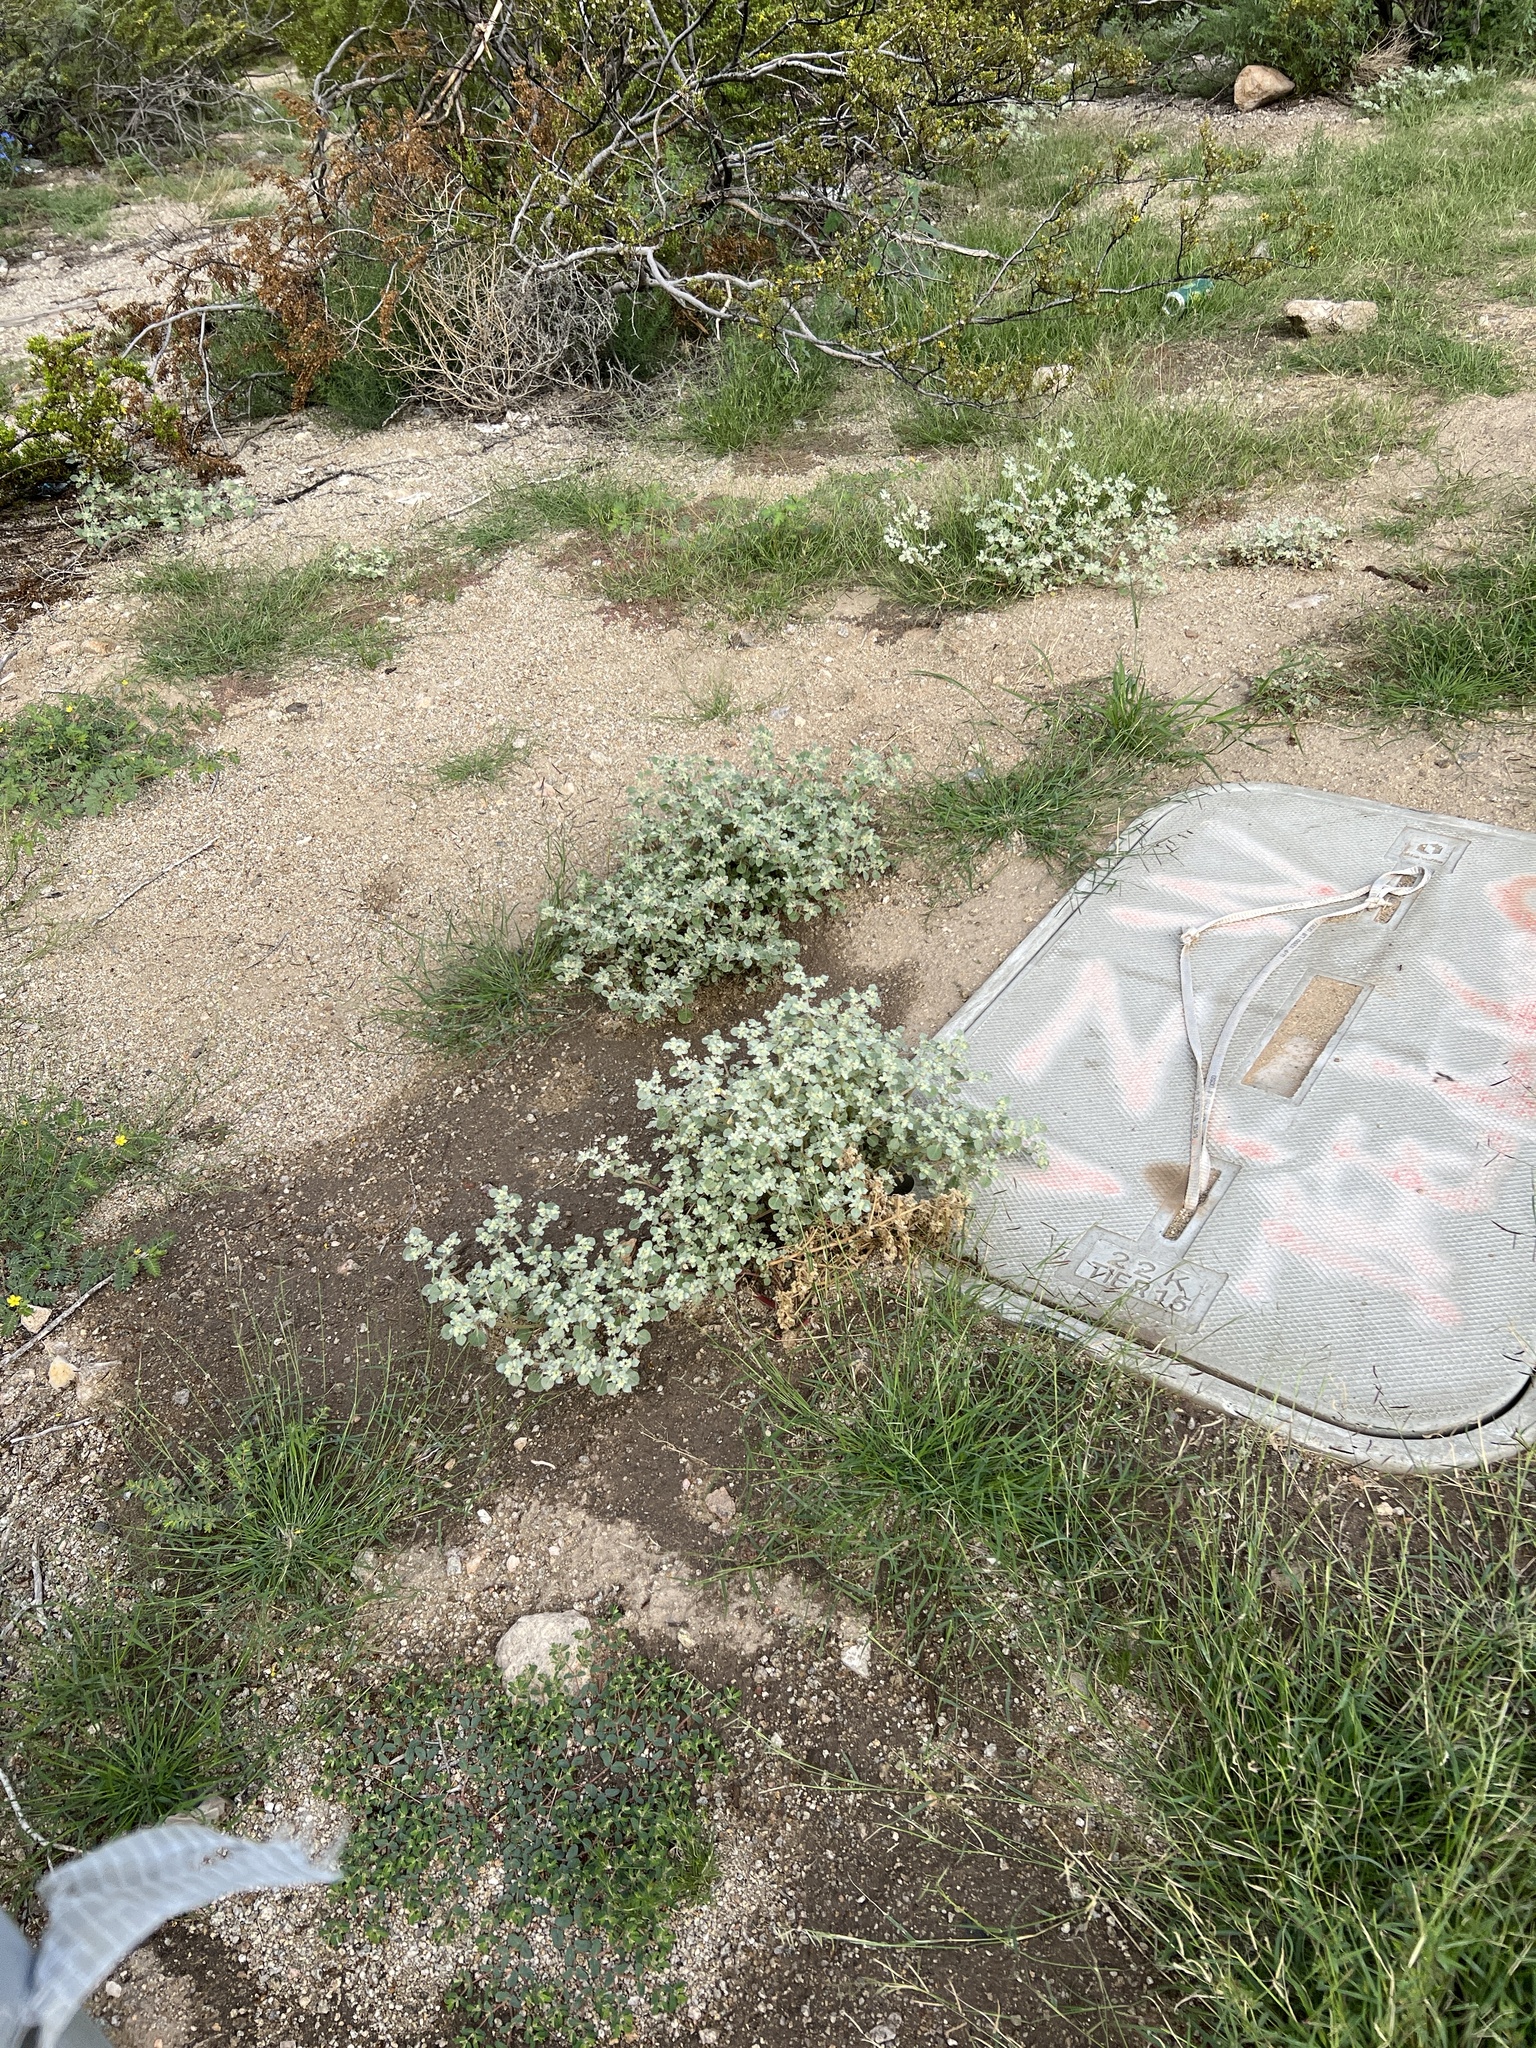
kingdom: Plantae
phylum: Tracheophyta
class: Magnoliopsida
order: Caryophyllales
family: Amaranthaceae
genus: Tidestromia
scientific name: Tidestromia lanuginosa
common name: Woolly tidestromia
